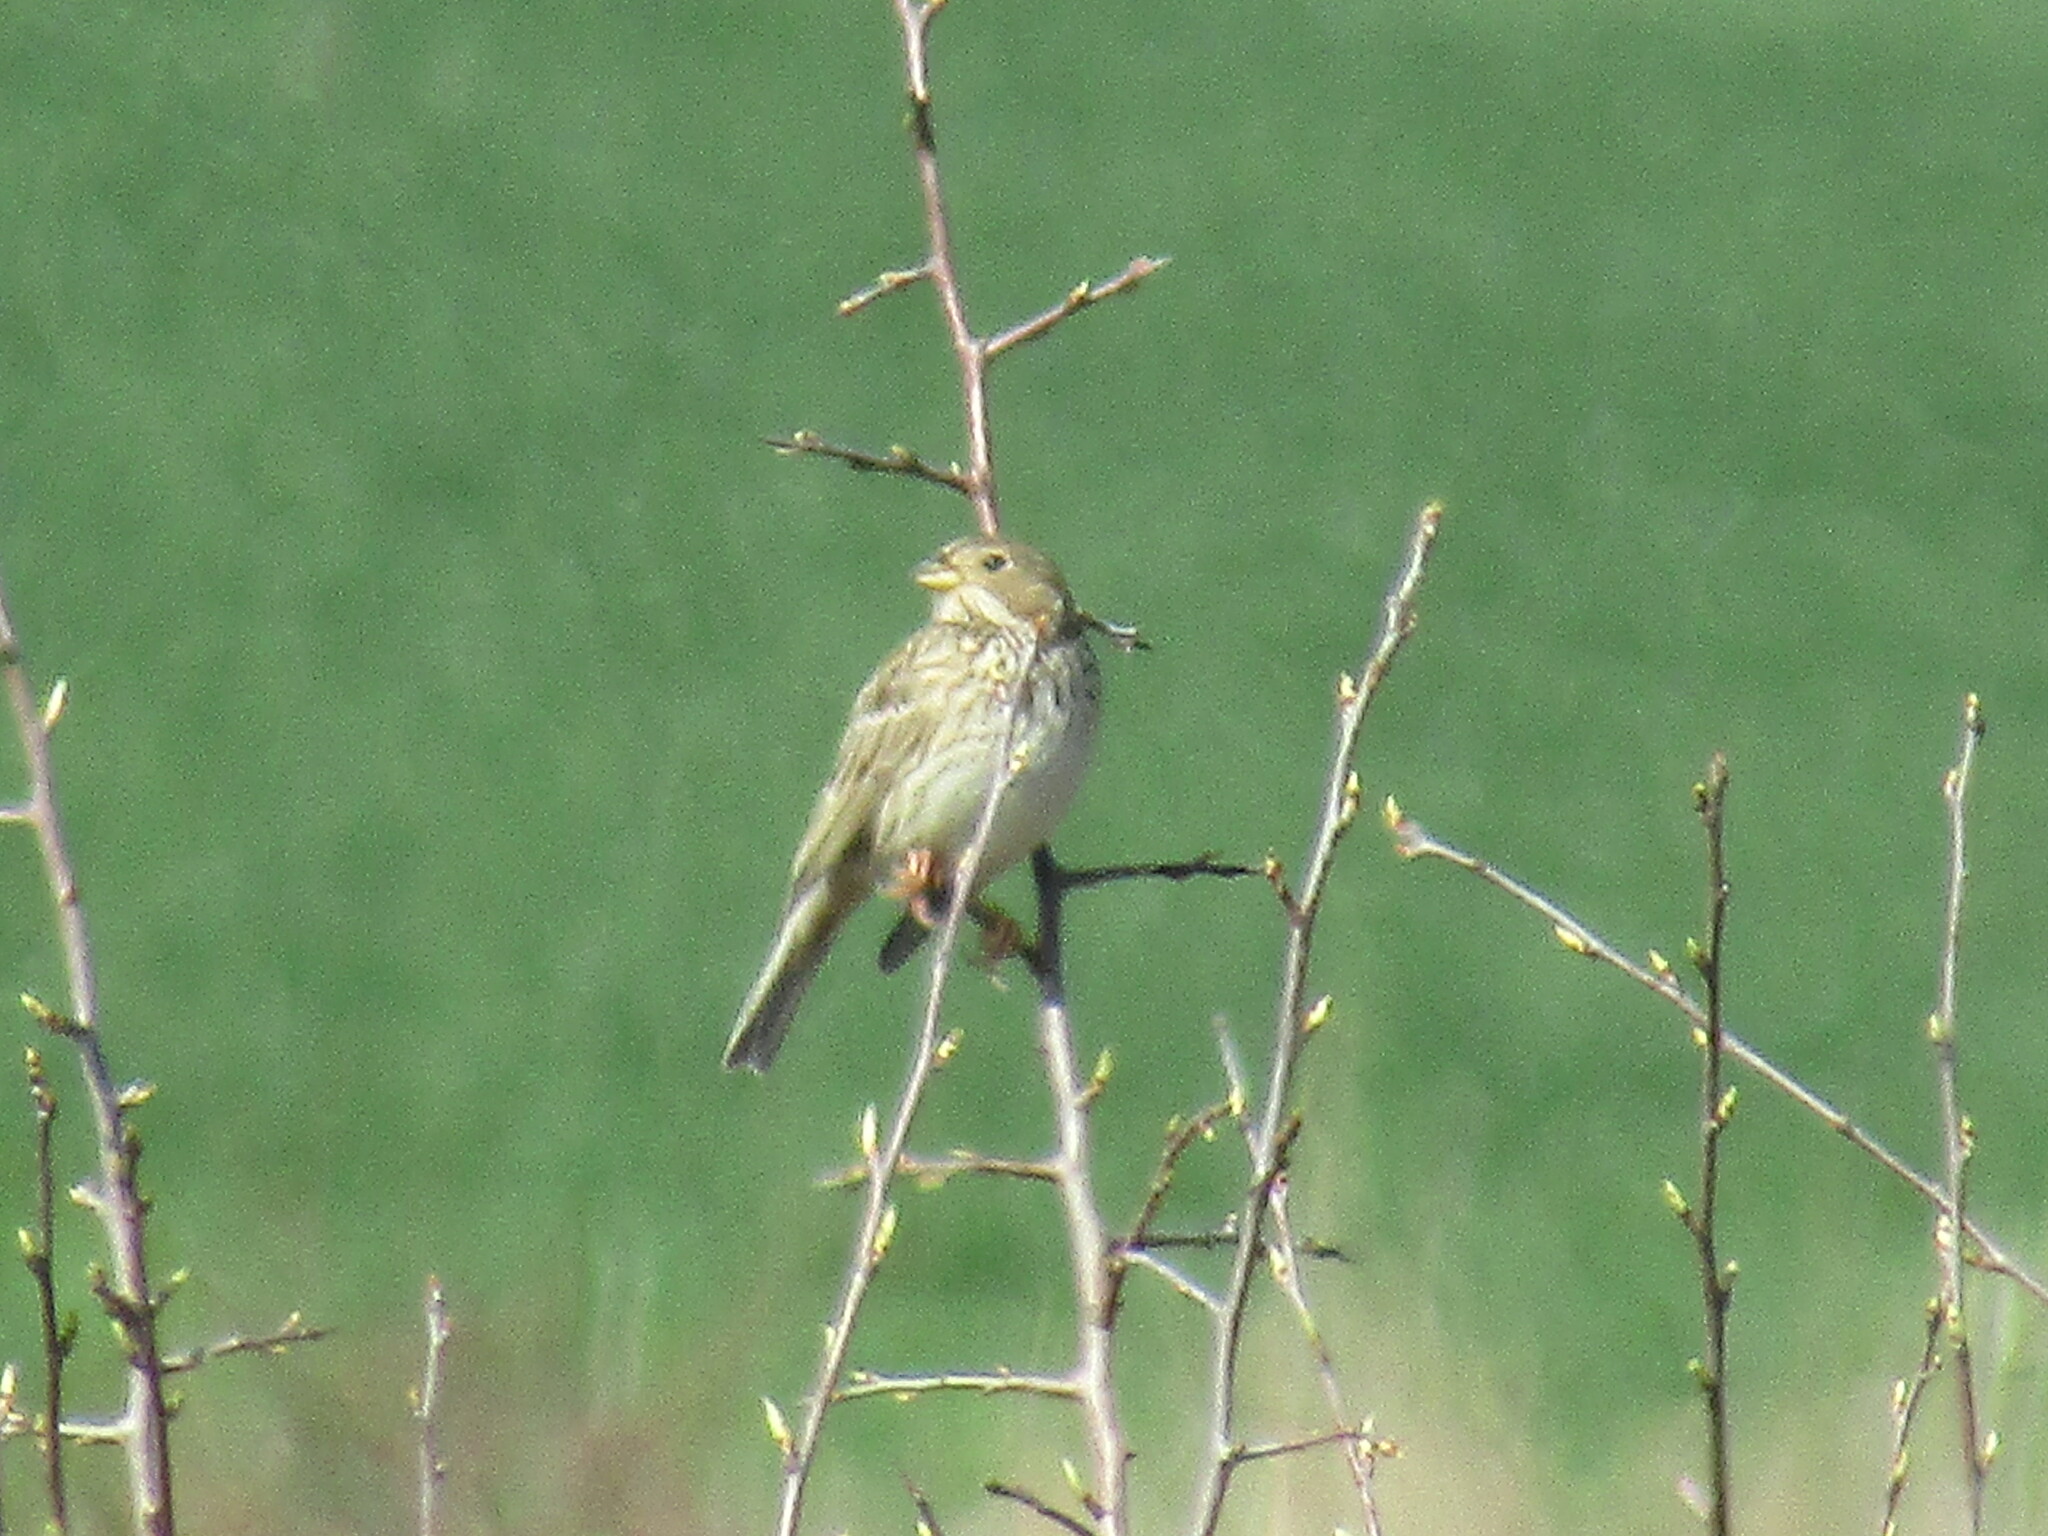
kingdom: Animalia
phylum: Chordata
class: Aves
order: Passeriformes
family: Emberizidae
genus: Emberiza
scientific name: Emberiza calandra
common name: Corn bunting
